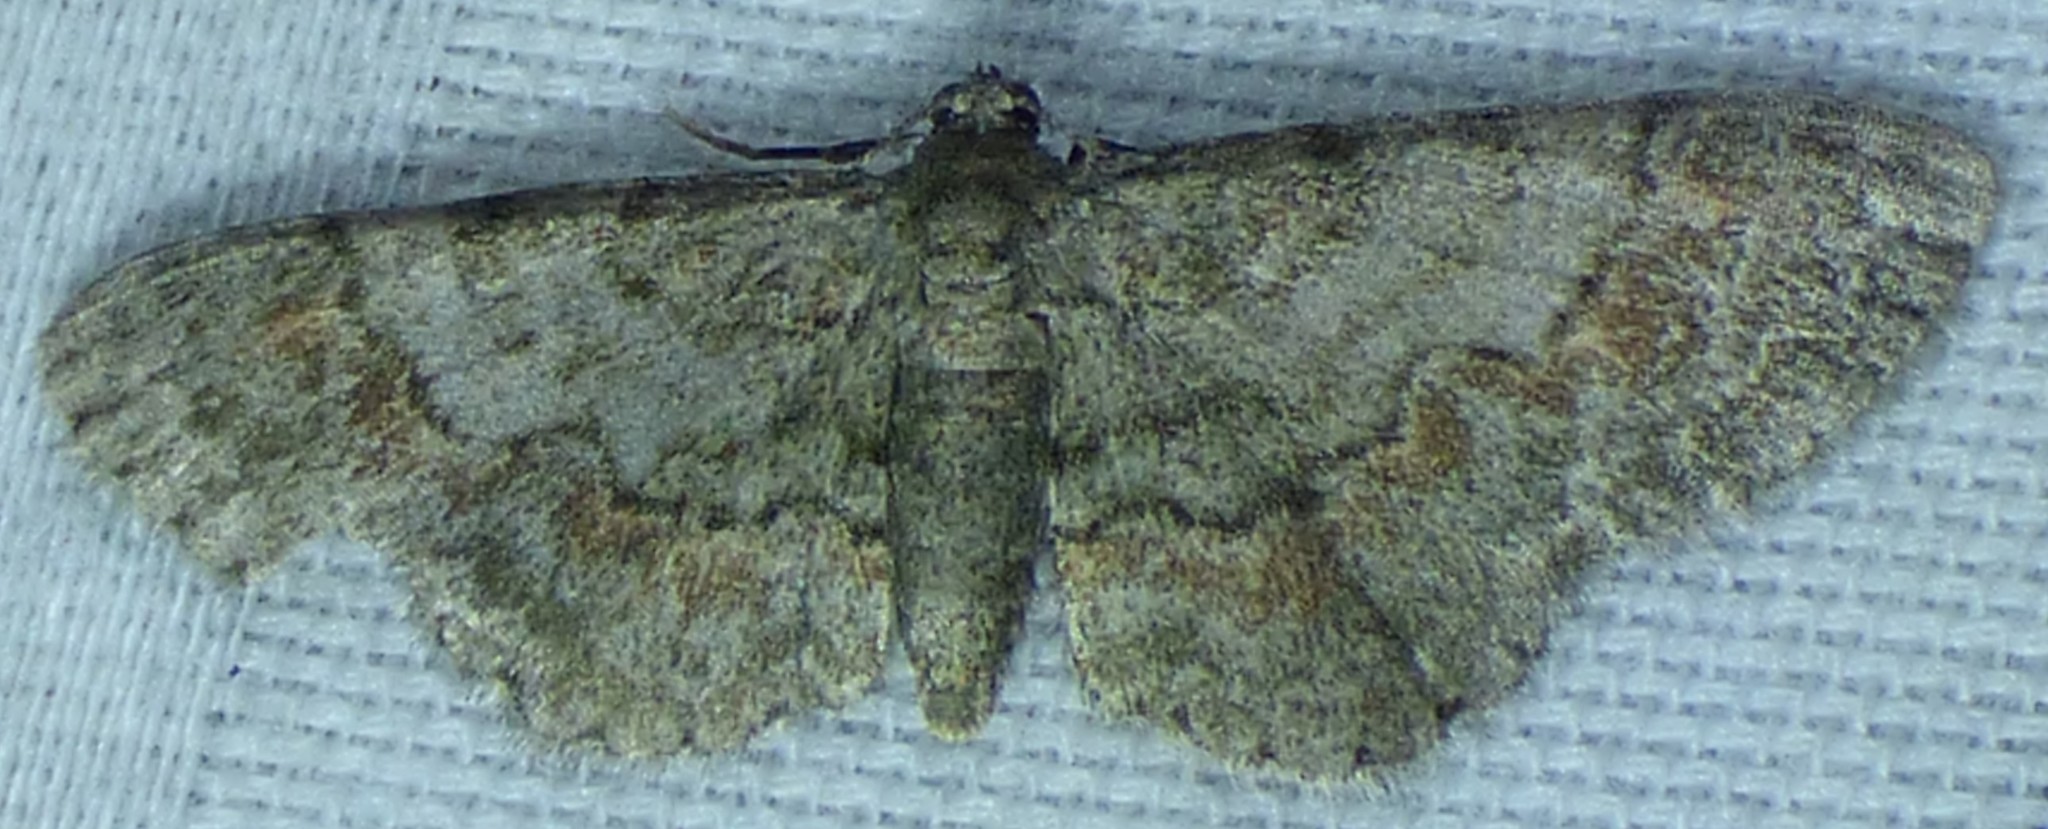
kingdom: Animalia
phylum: Arthropoda
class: Insecta
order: Lepidoptera
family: Geometridae
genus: Glenoides
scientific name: Glenoides texanaria
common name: Texas gray
